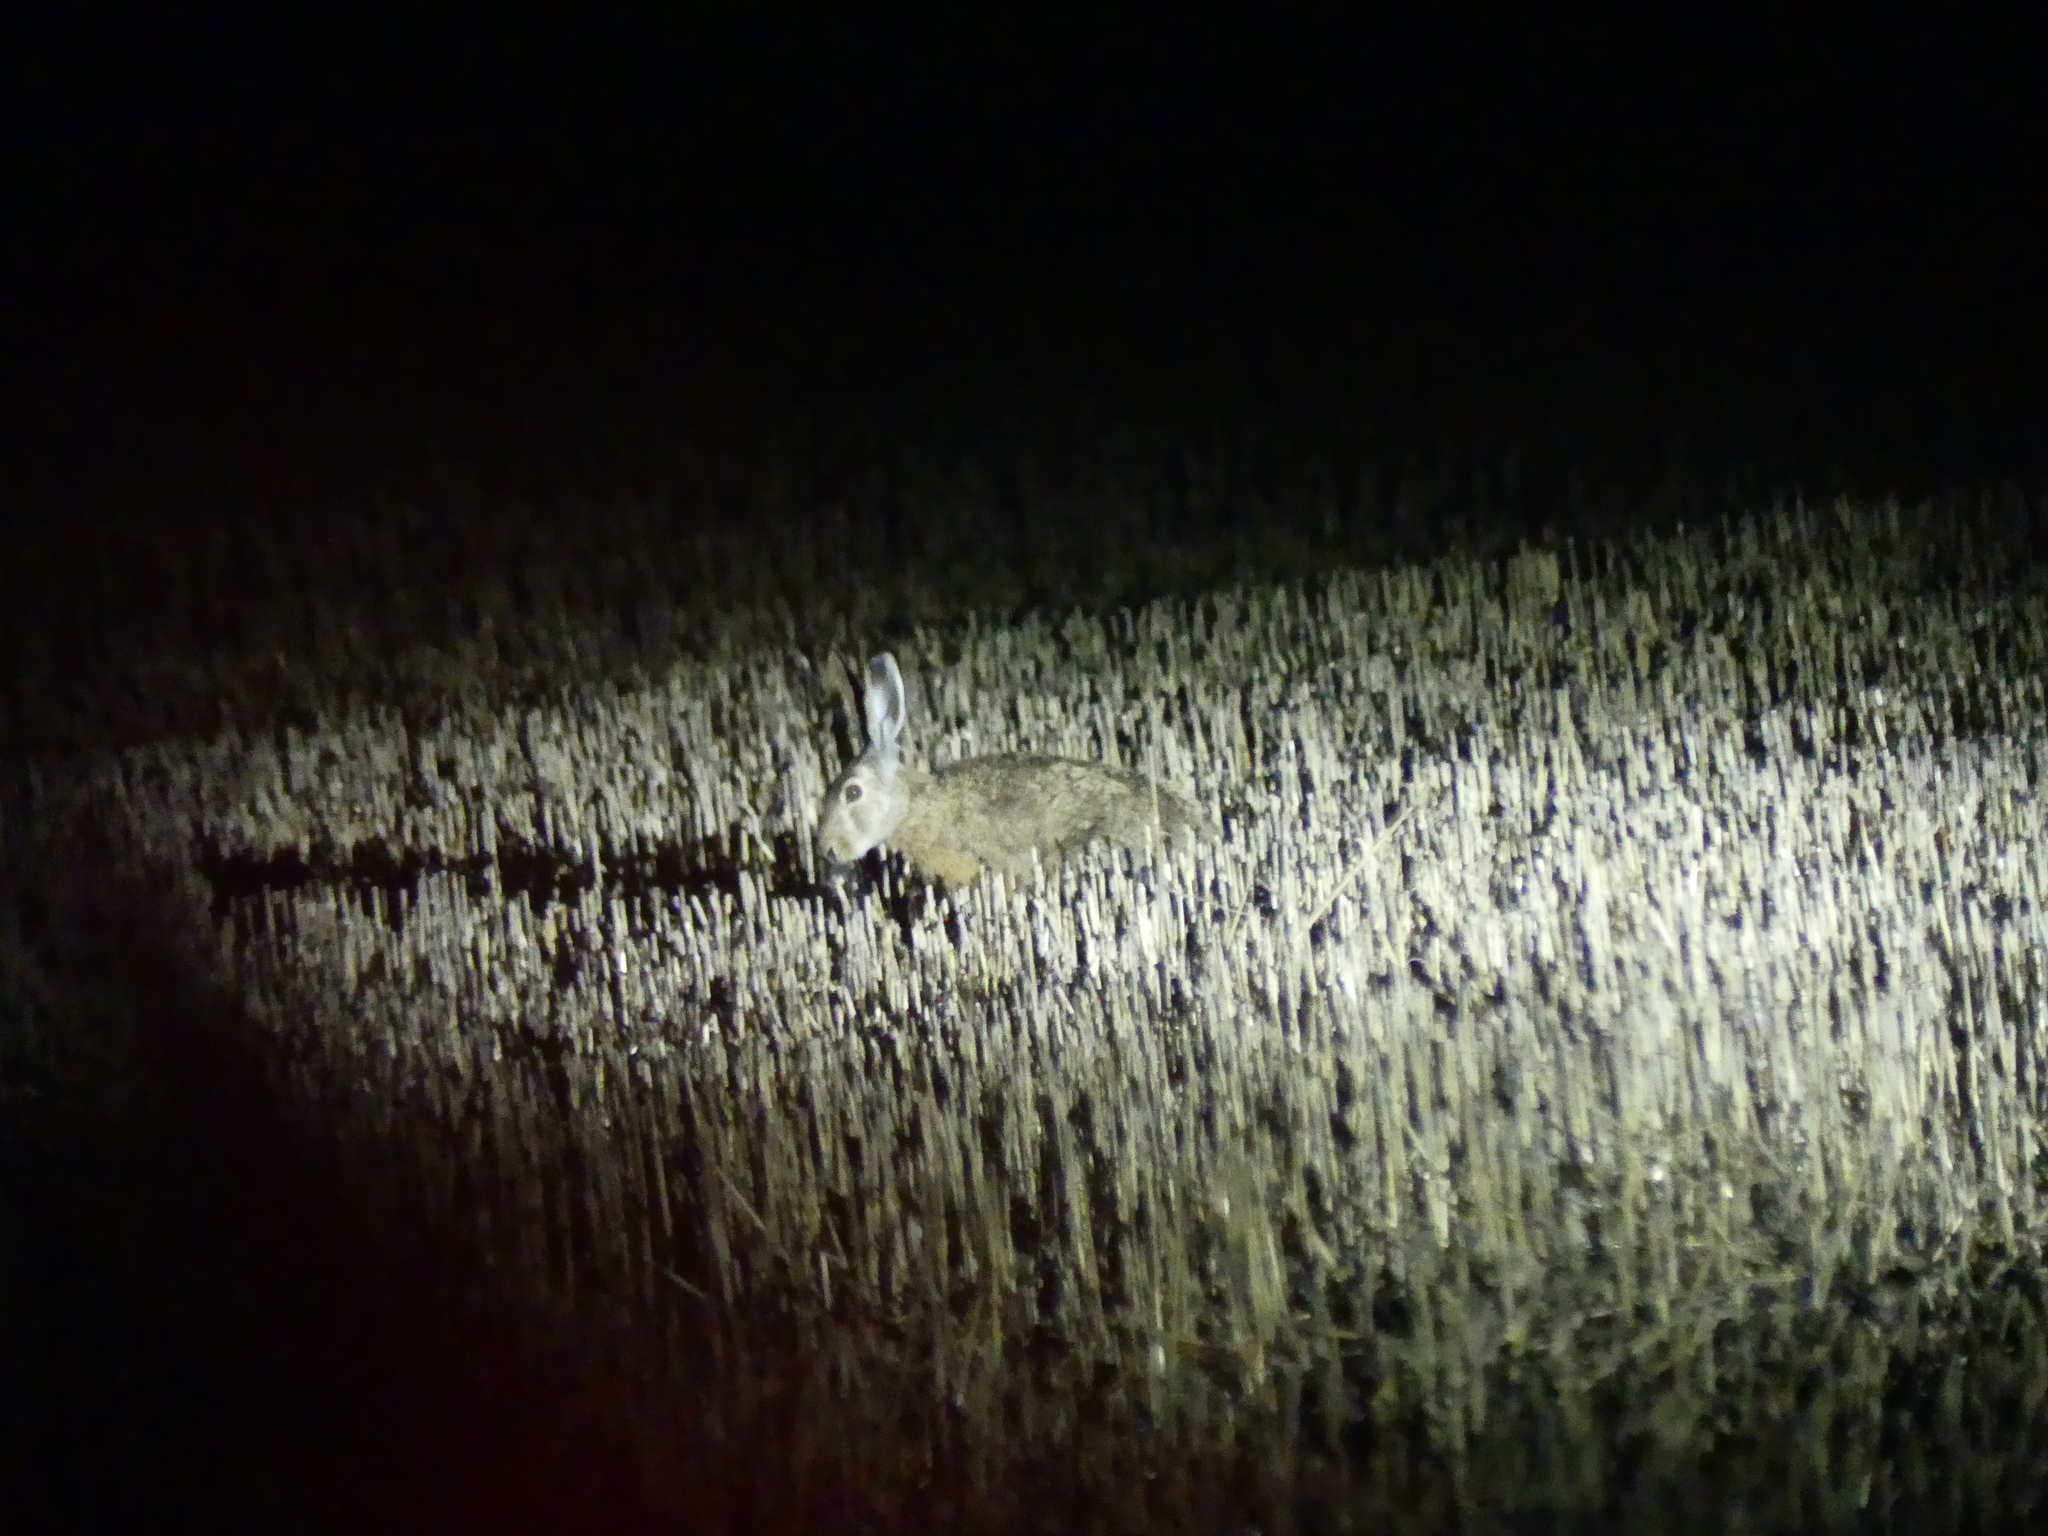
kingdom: Animalia
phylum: Chordata
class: Mammalia
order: Lagomorpha
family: Leporidae
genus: Lepus
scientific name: Lepus europaeus
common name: European hare
